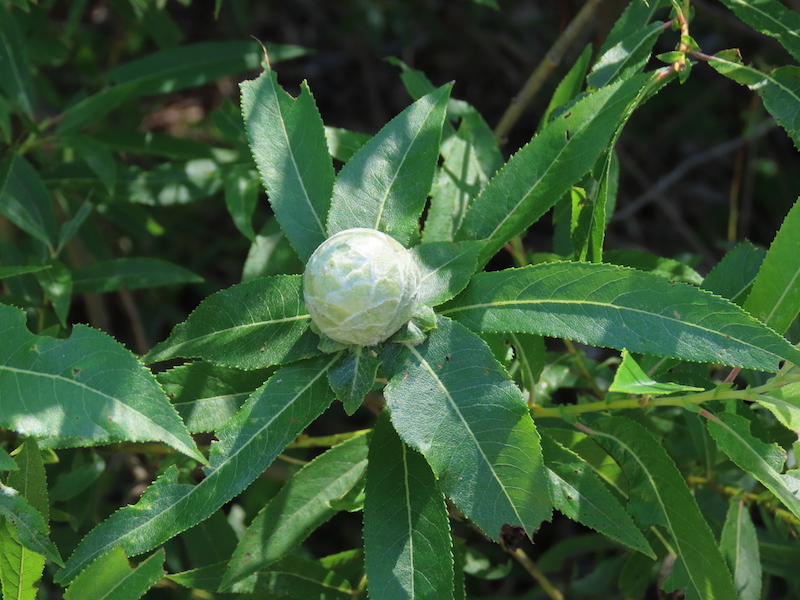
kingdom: Animalia
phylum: Arthropoda
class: Insecta
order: Diptera
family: Cecidomyiidae
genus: Rabdophaga
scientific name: Rabdophaga strobiloides
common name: Willow pinecone gall midge
